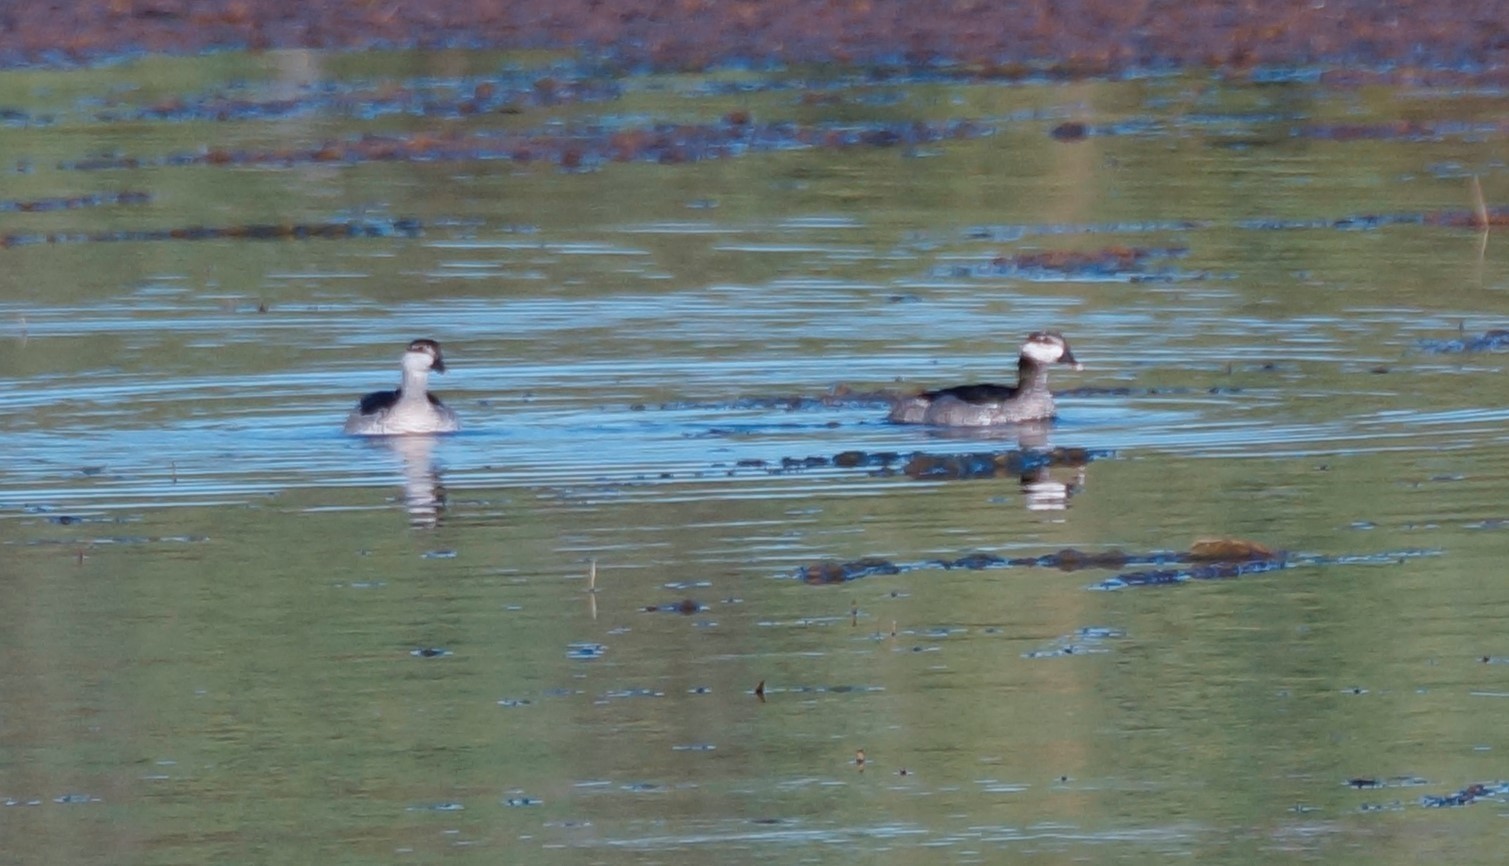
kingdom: Animalia
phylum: Chordata
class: Aves
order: Anseriformes
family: Anatidae
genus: Nettapus
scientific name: Nettapus pulchellus
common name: Green pygmy-goose
